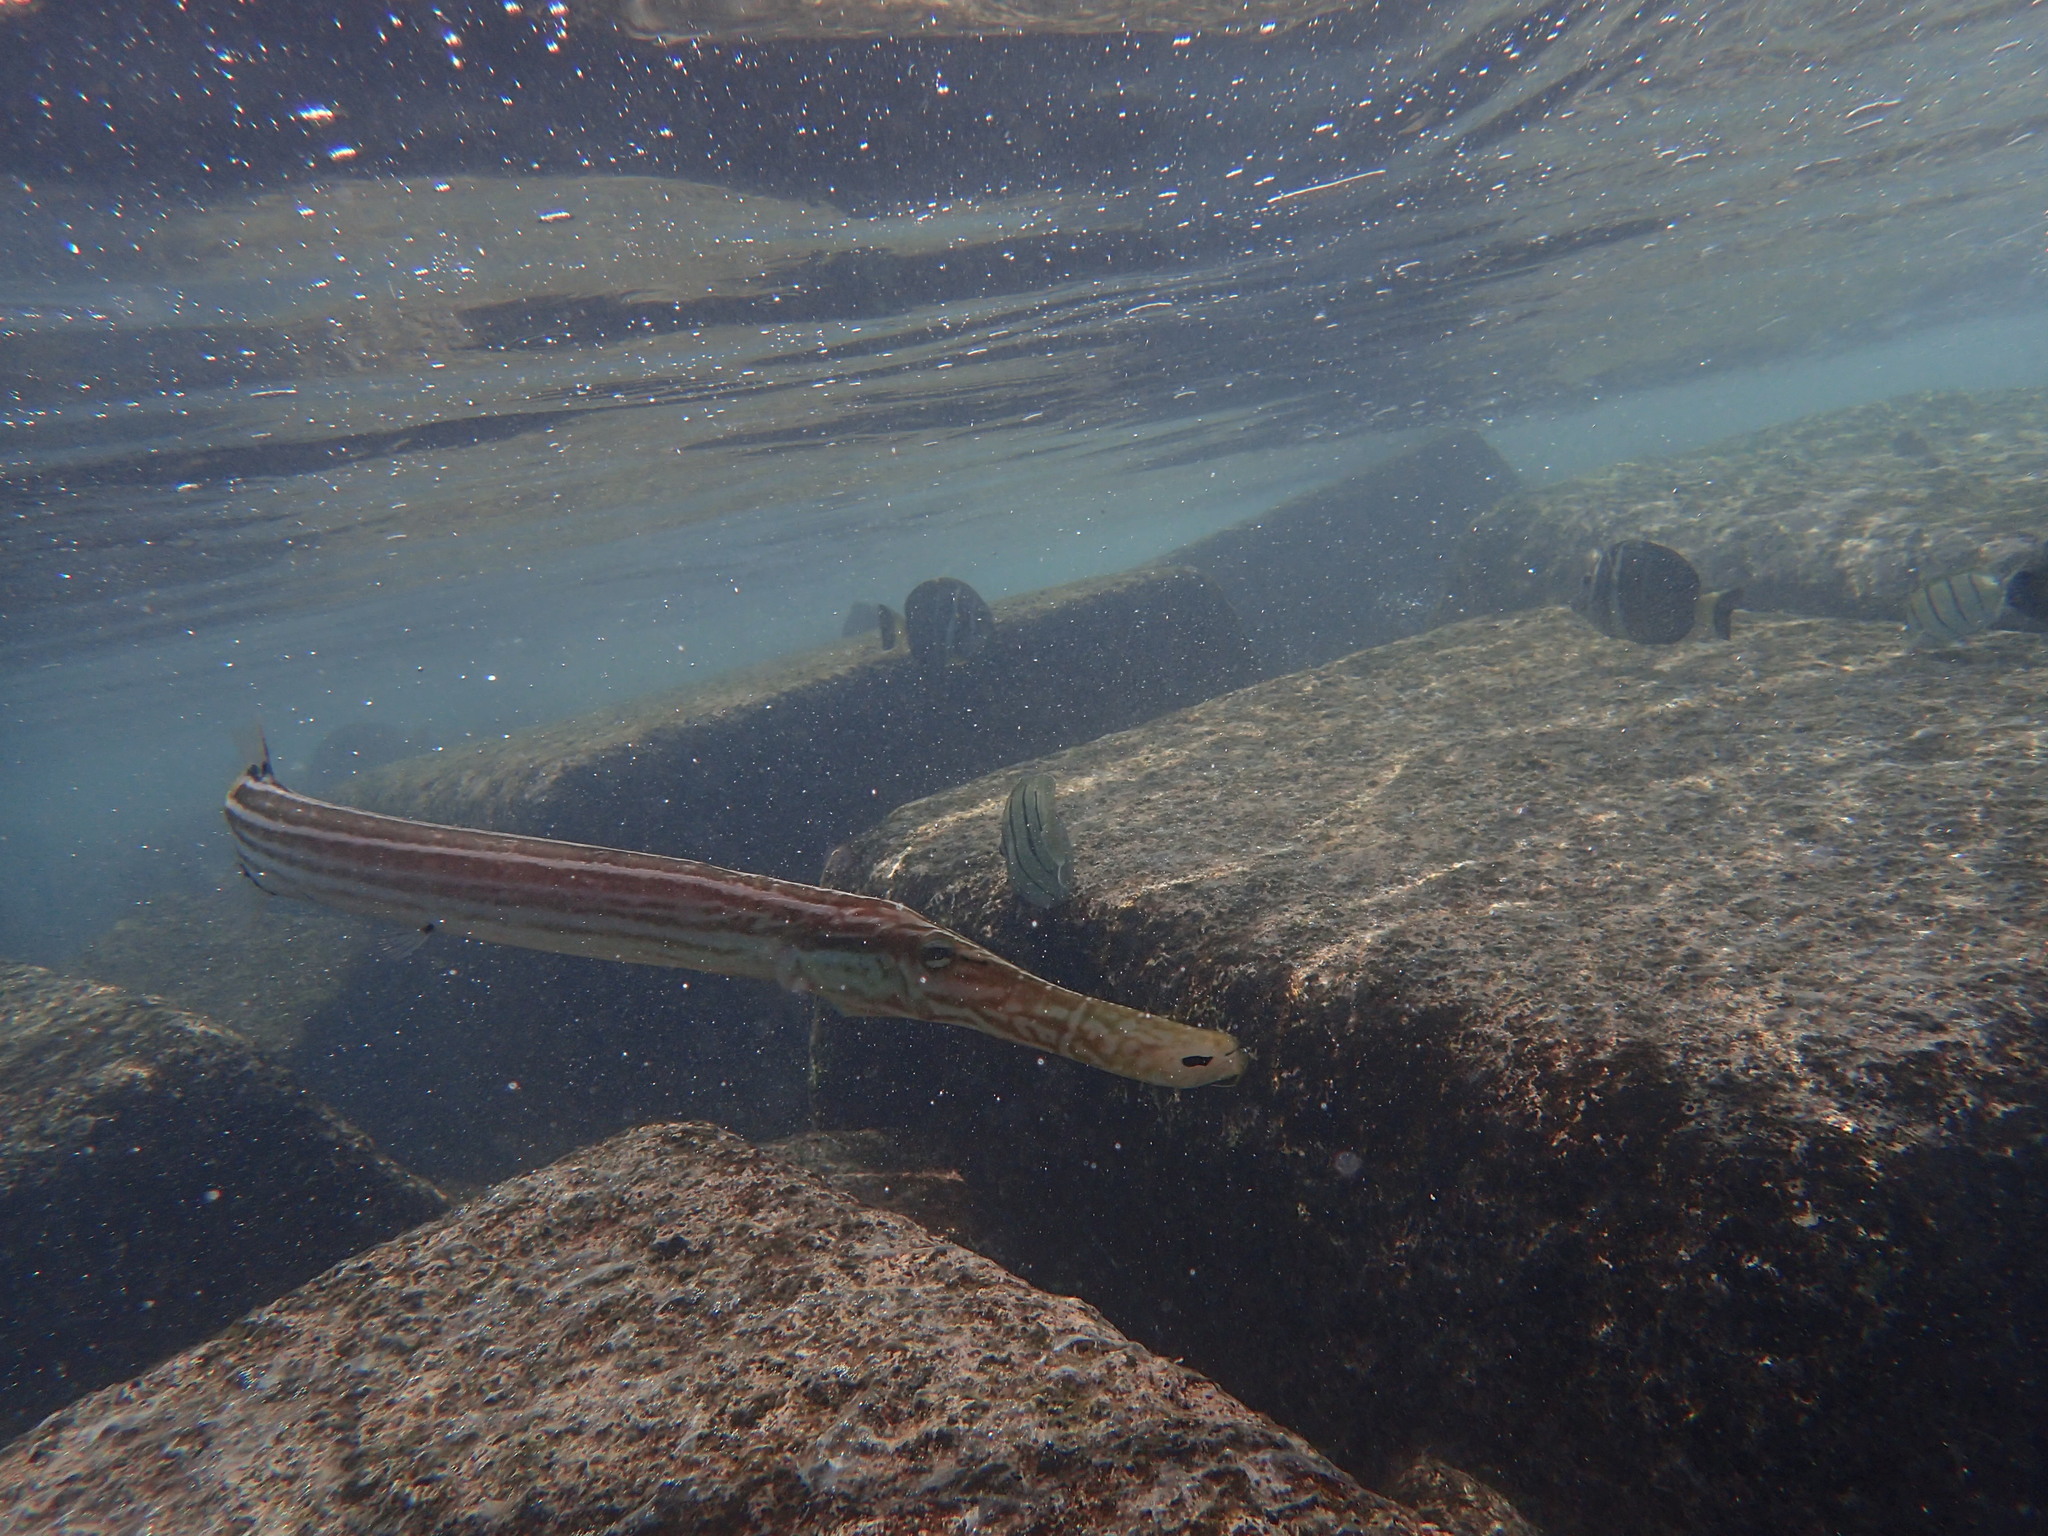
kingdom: Animalia
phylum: Chordata
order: Syngnathiformes
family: Aulostomidae
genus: Aulostomus
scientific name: Aulostomus chinensis
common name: Chinese trumpetfish
